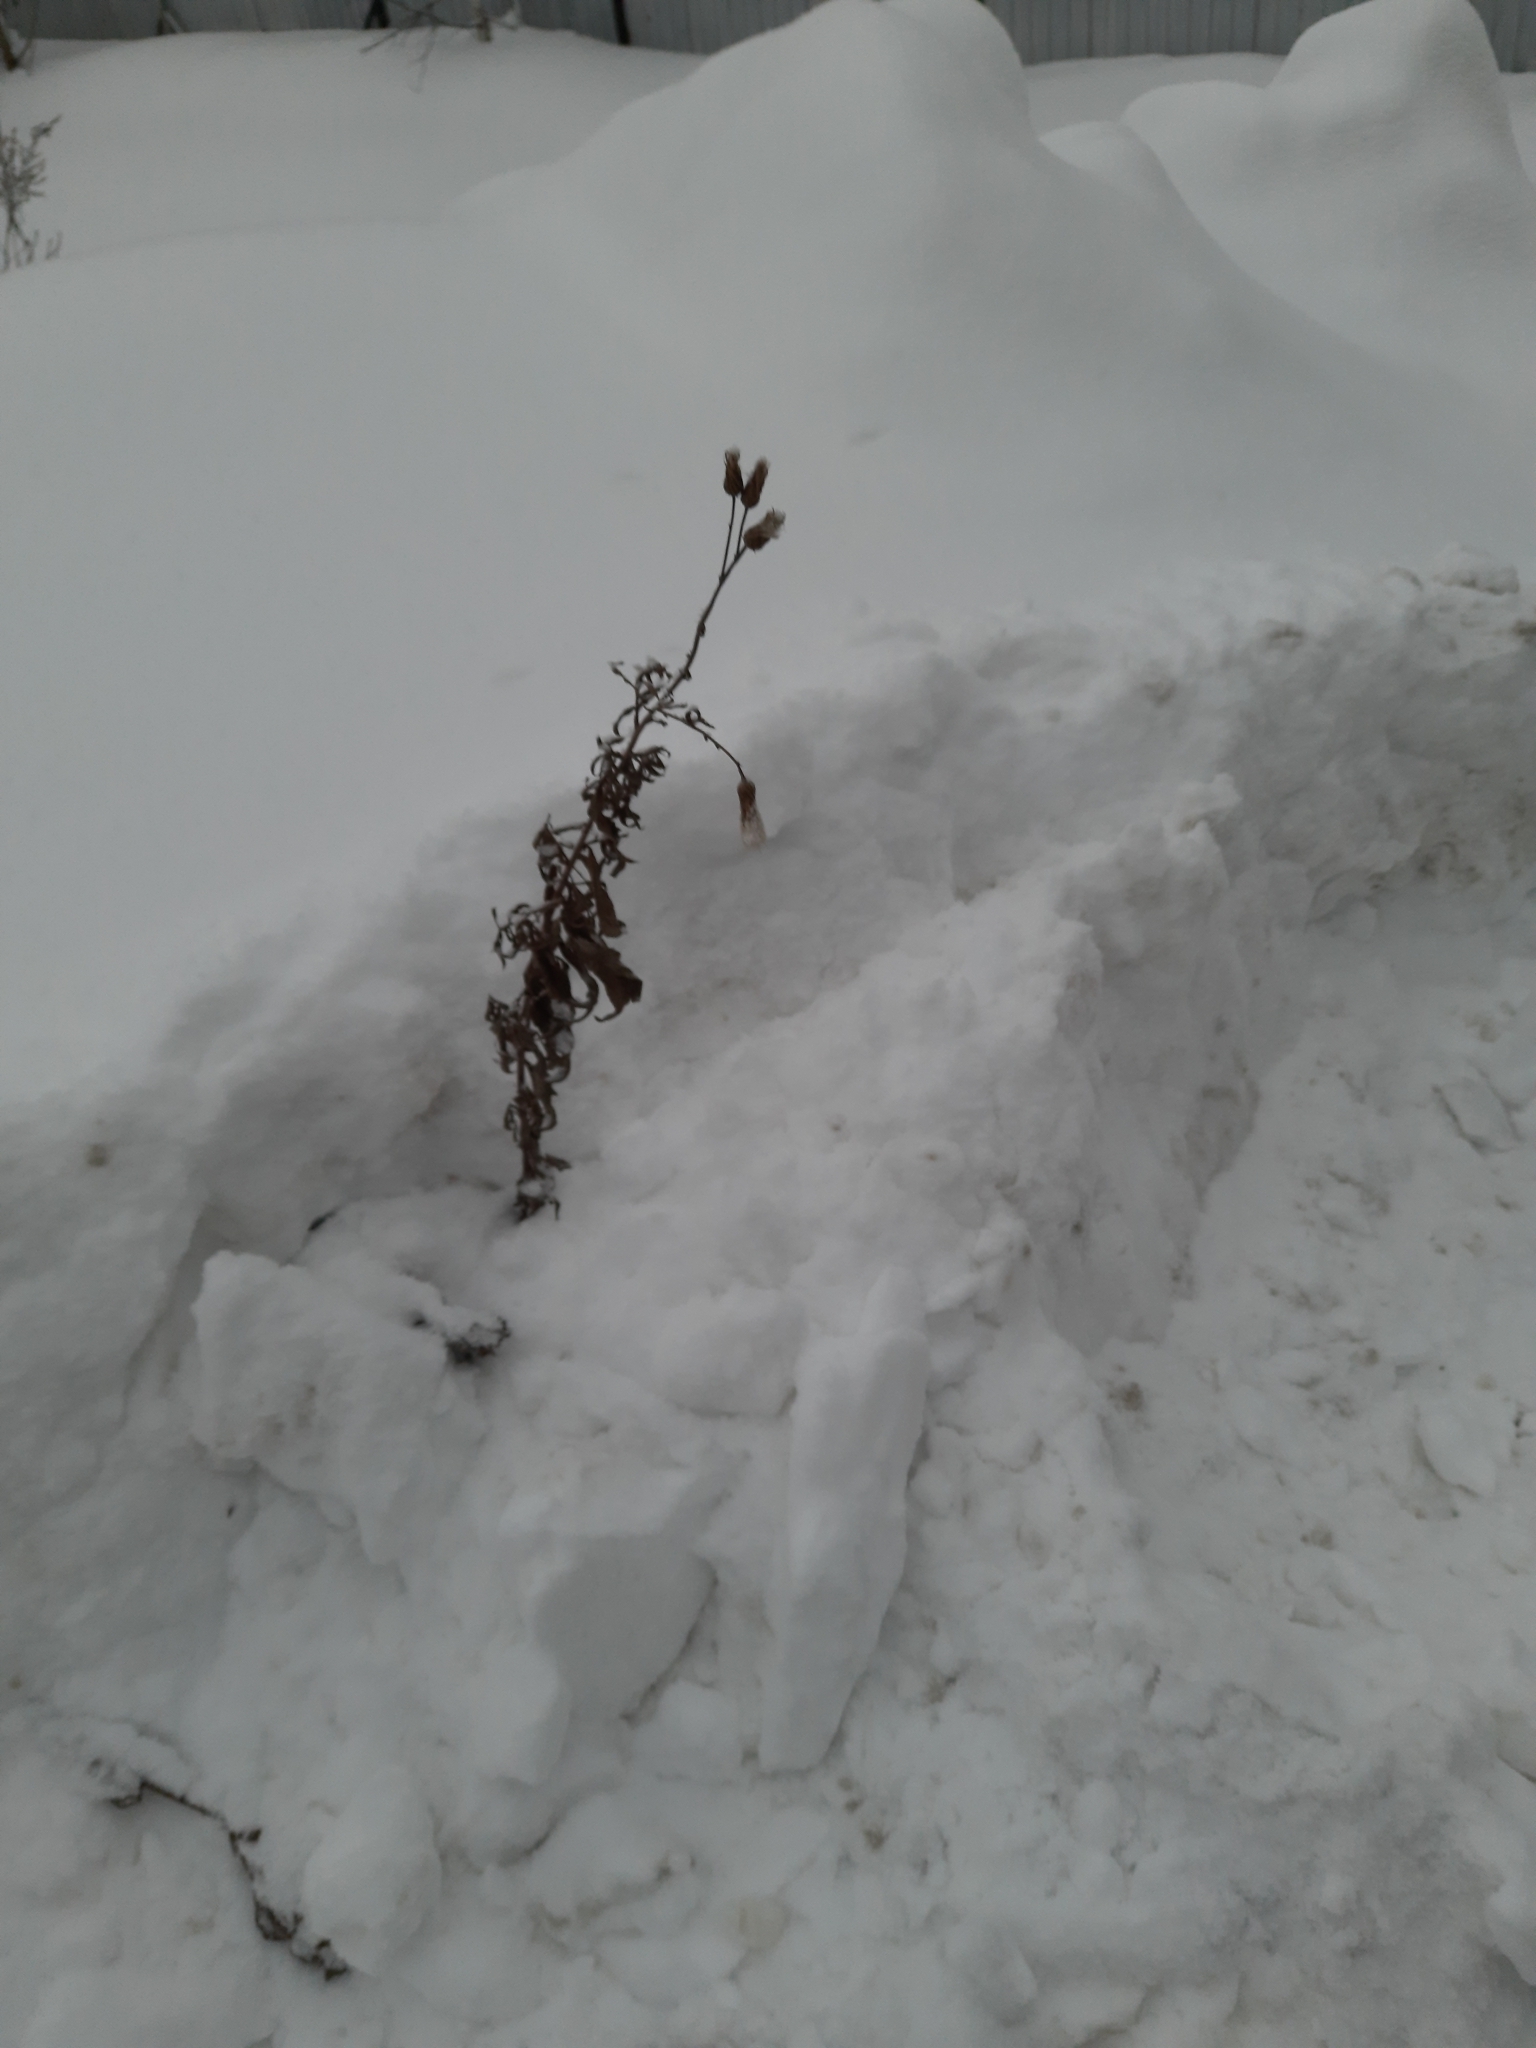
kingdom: Plantae
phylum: Tracheophyta
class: Magnoliopsida
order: Asterales
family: Asteraceae
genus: Cirsium
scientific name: Cirsium arvense
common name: Creeping thistle
